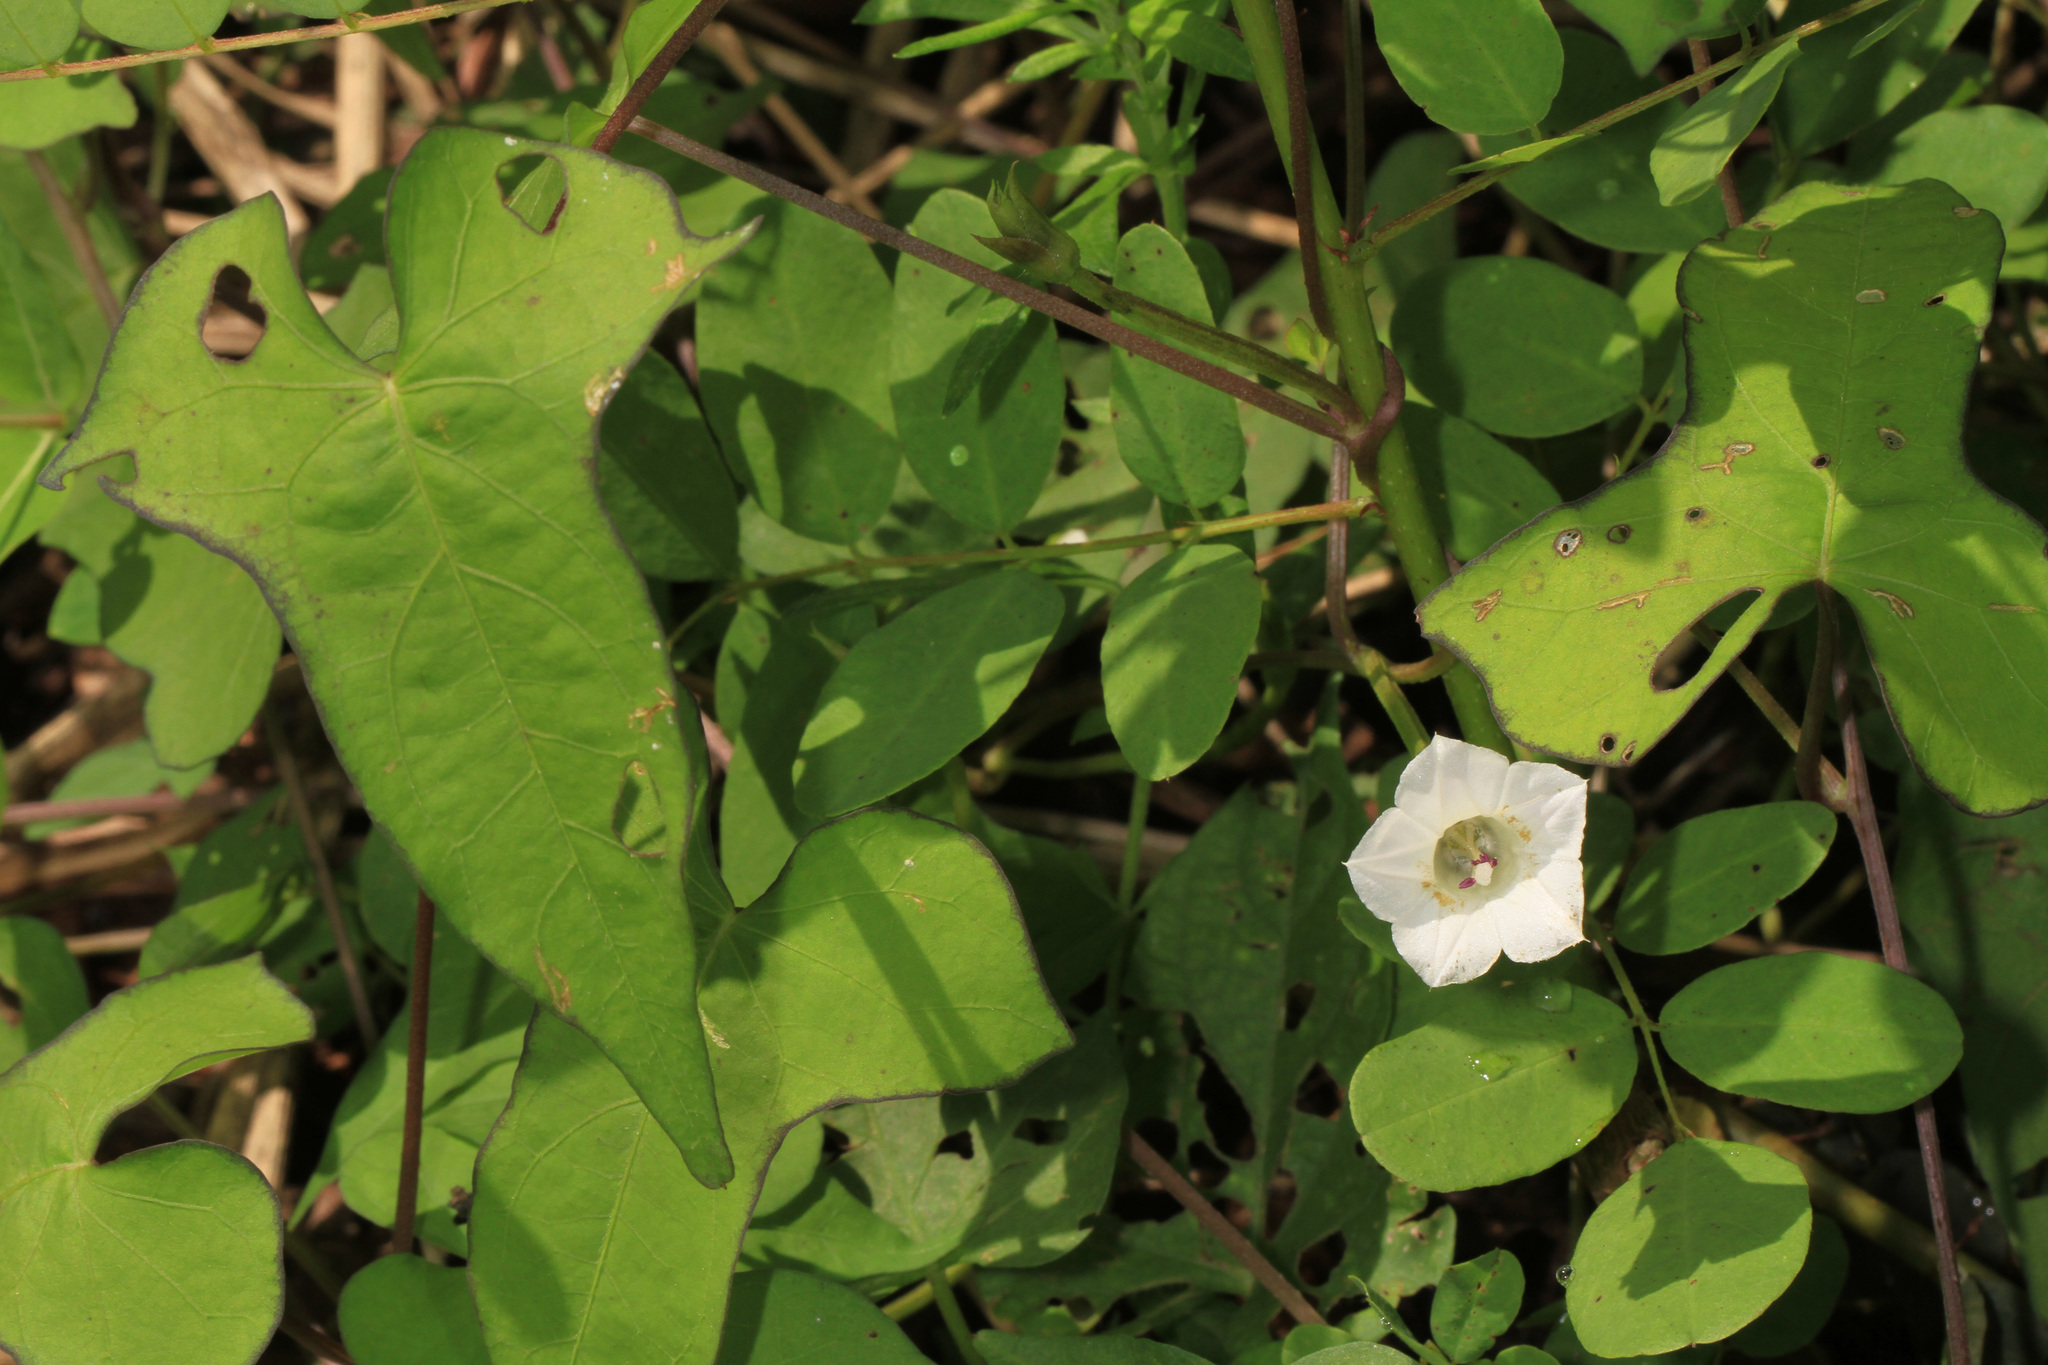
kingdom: Plantae
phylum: Tracheophyta
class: Magnoliopsida
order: Solanales
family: Convolvulaceae
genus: Ipomoea
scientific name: Ipomoea lacunosa
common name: White morning-glory
